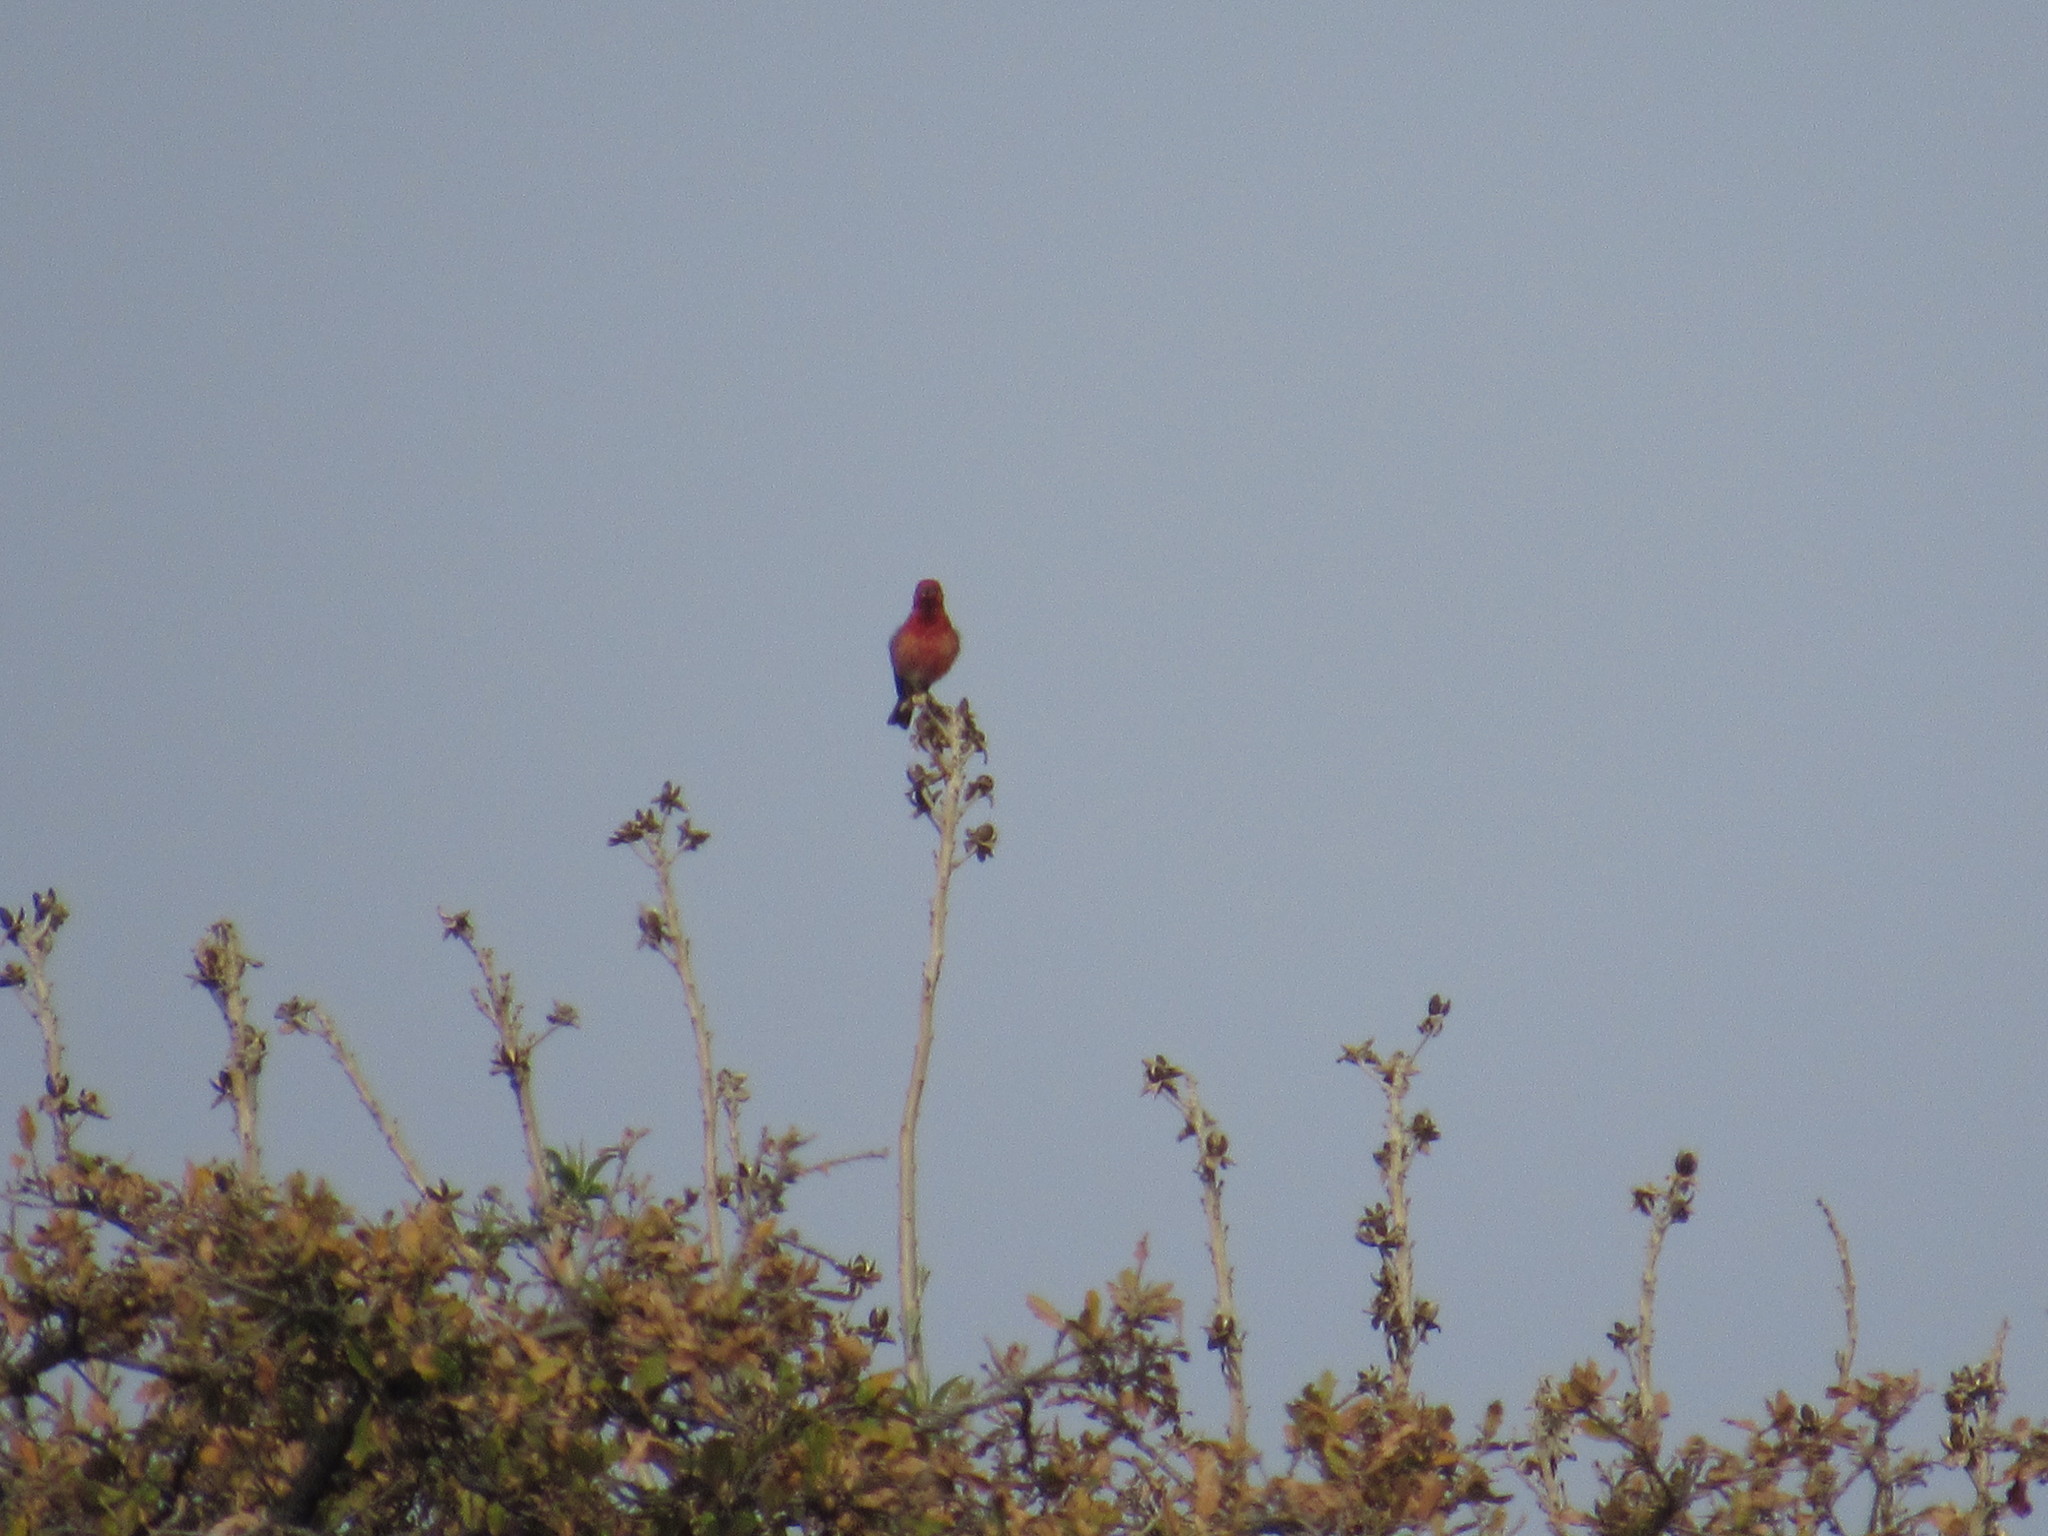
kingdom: Animalia
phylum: Chordata
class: Aves
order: Passeriformes
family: Fringillidae
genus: Haemorhous
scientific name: Haemorhous mexicanus
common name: House finch
